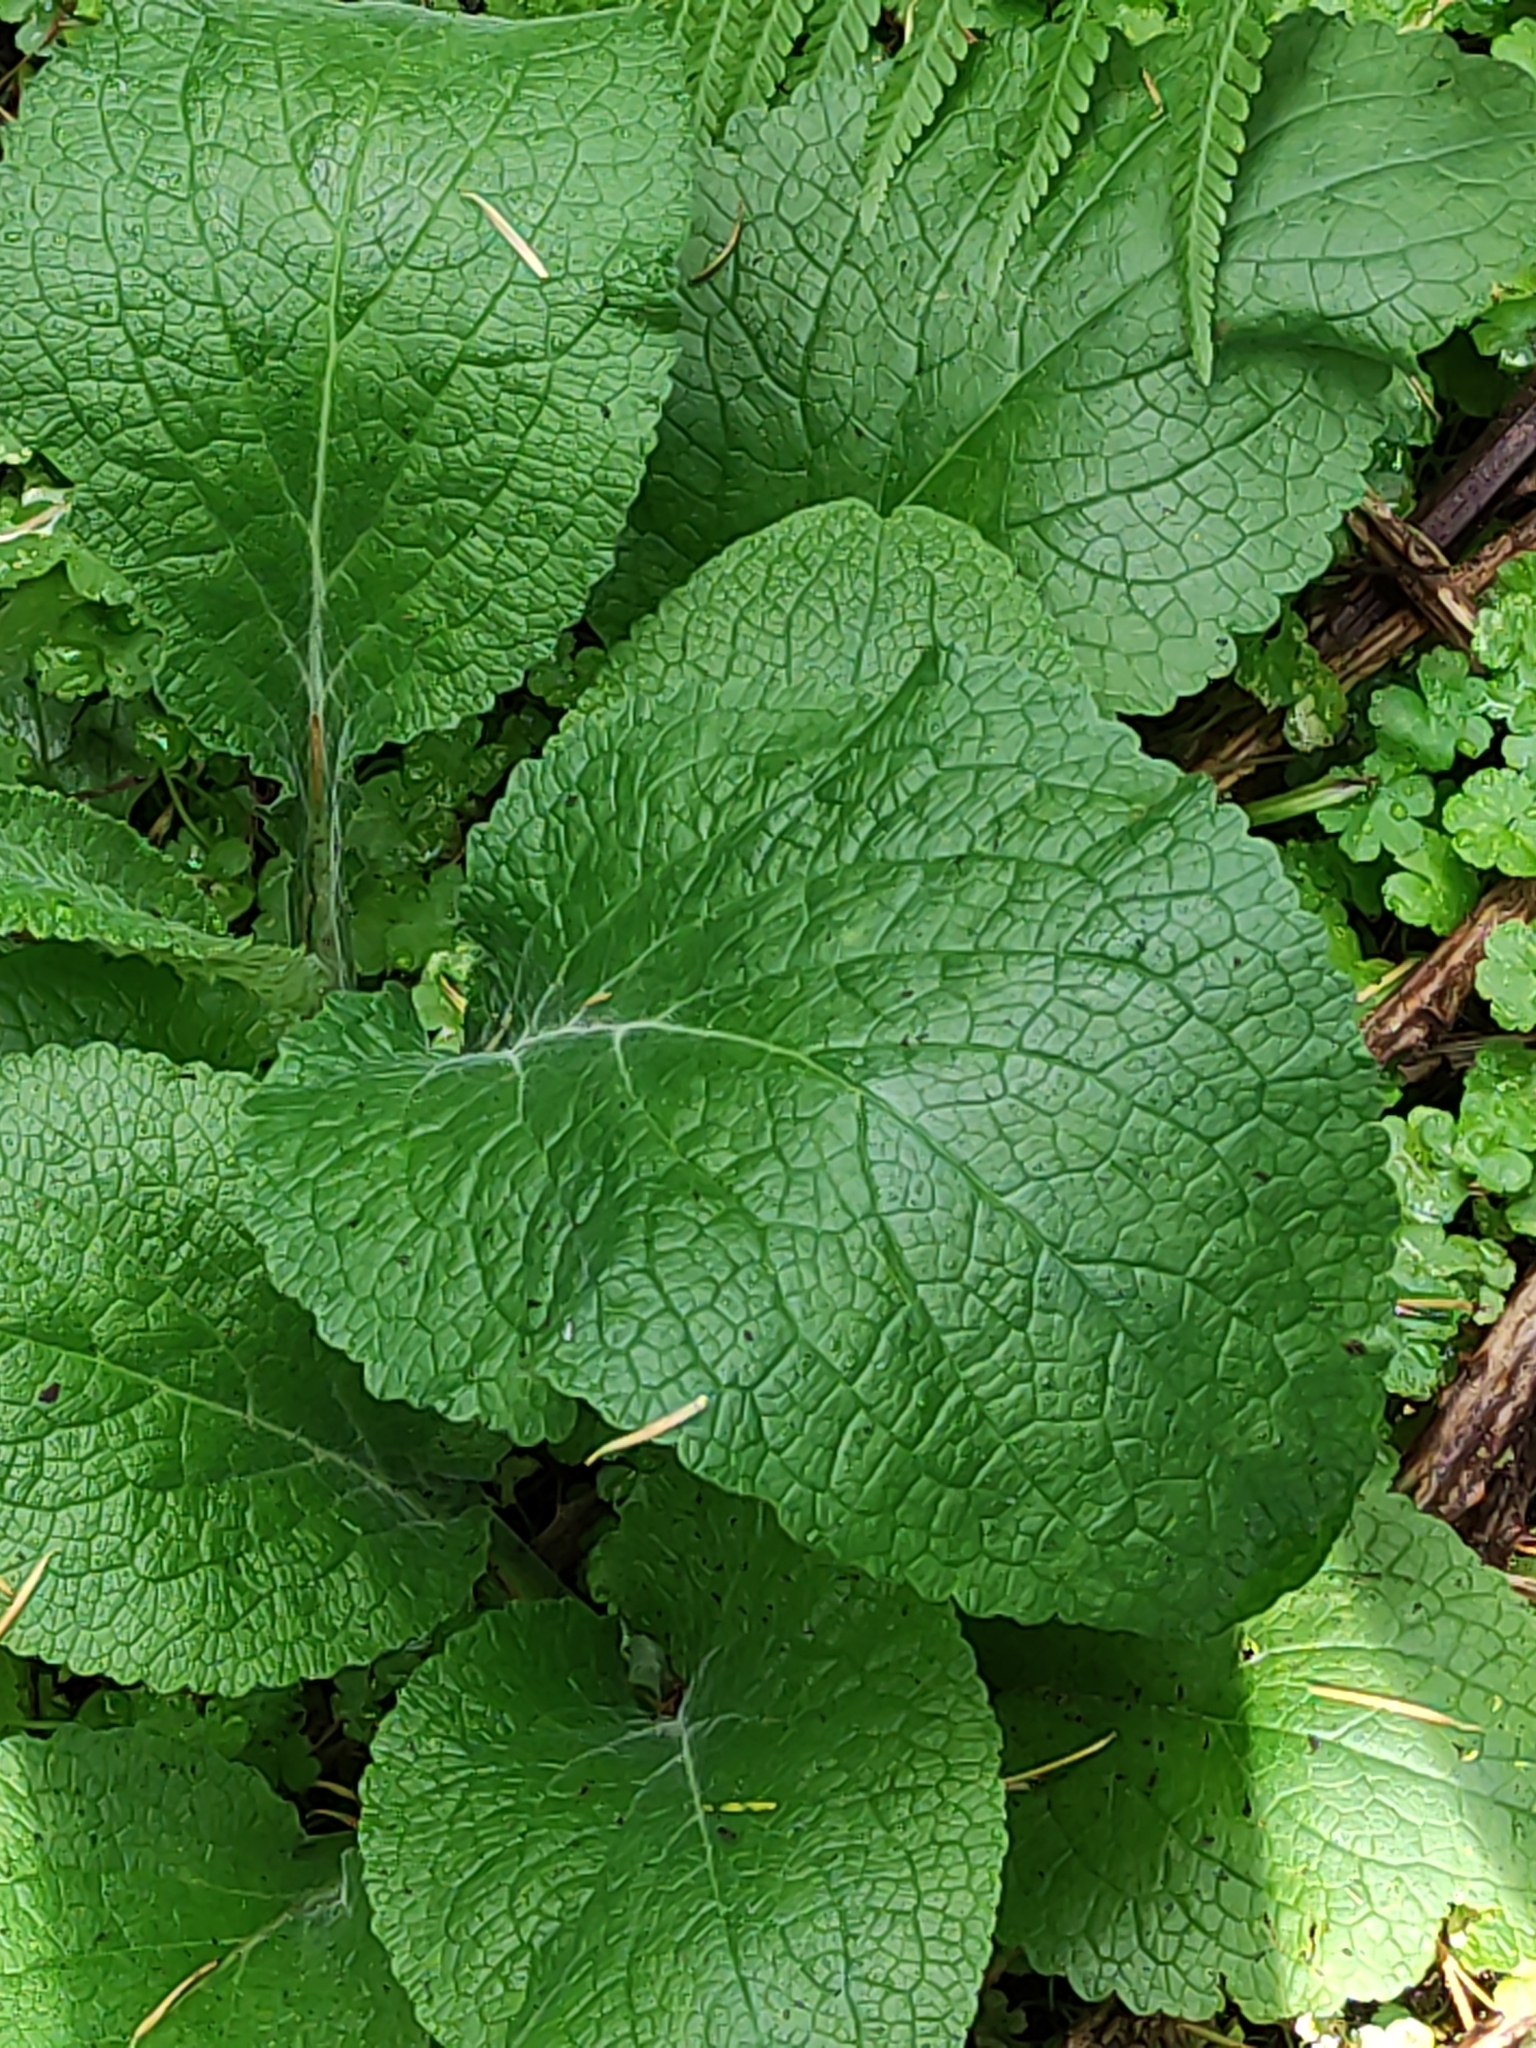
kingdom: Plantae
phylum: Tracheophyta
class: Magnoliopsida
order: Lamiales
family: Plantaginaceae
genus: Digitalis
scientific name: Digitalis purpurea
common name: Foxglove
